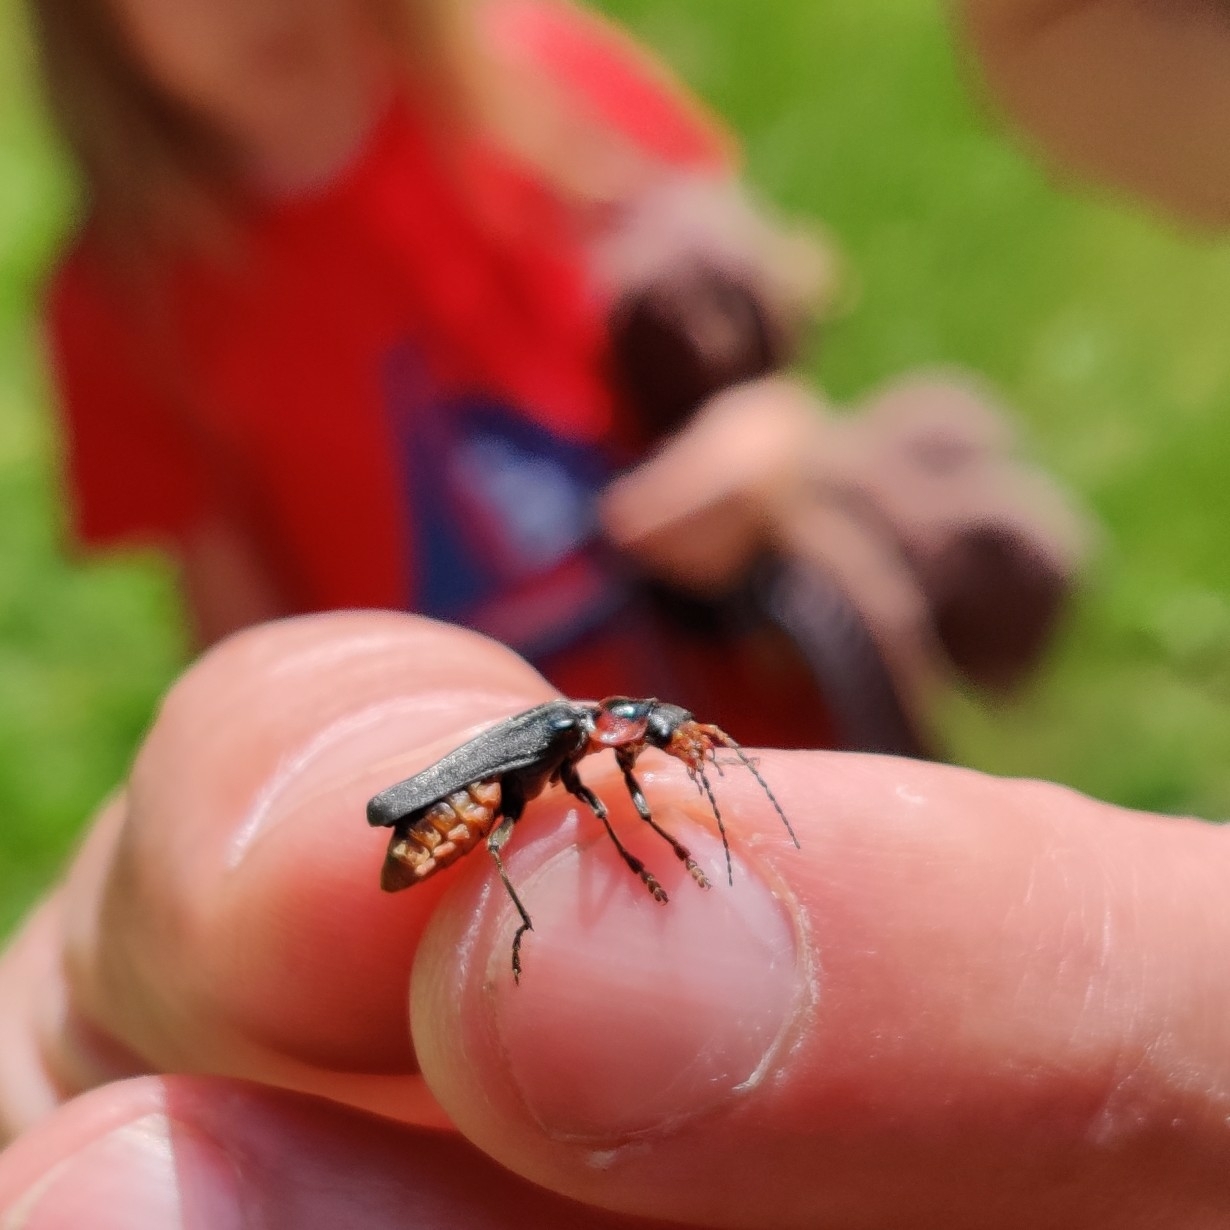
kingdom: Animalia
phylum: Arthropoda
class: Insecta
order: Coleoptera
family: Cantharidae
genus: Cantharis
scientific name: Cantharis fusca
